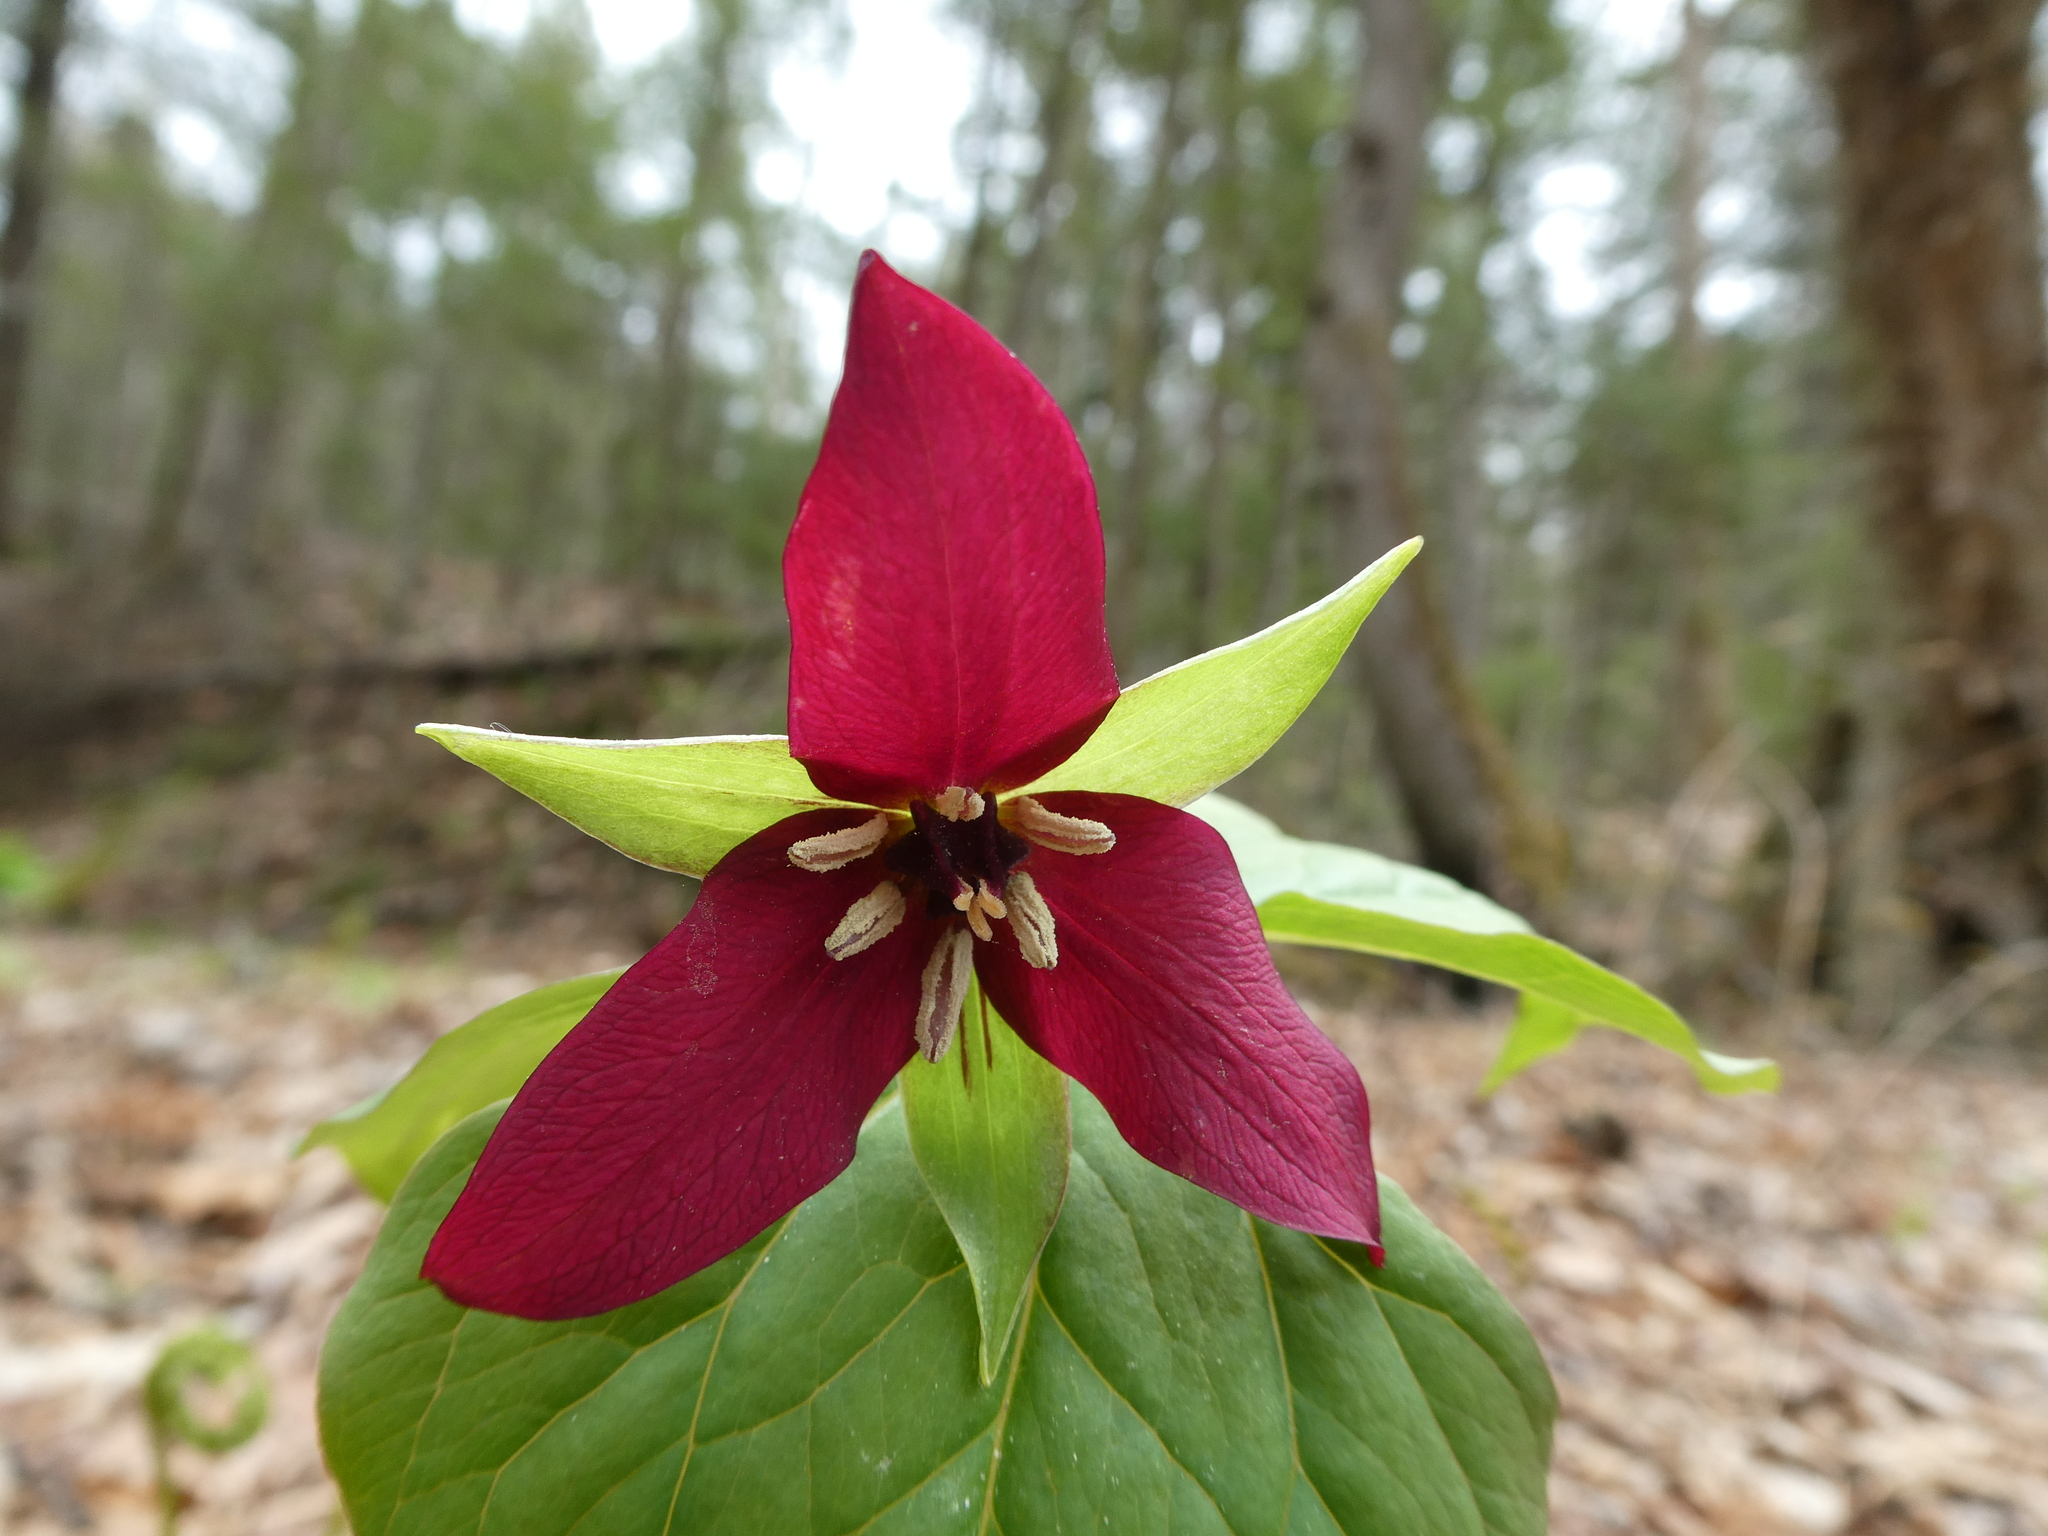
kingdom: Plantae
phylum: Tracheophyta
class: Liliopsida
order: Liliales
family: Melanthiaceae
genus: Trillium
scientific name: Trillium erectum
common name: Purple trillium
